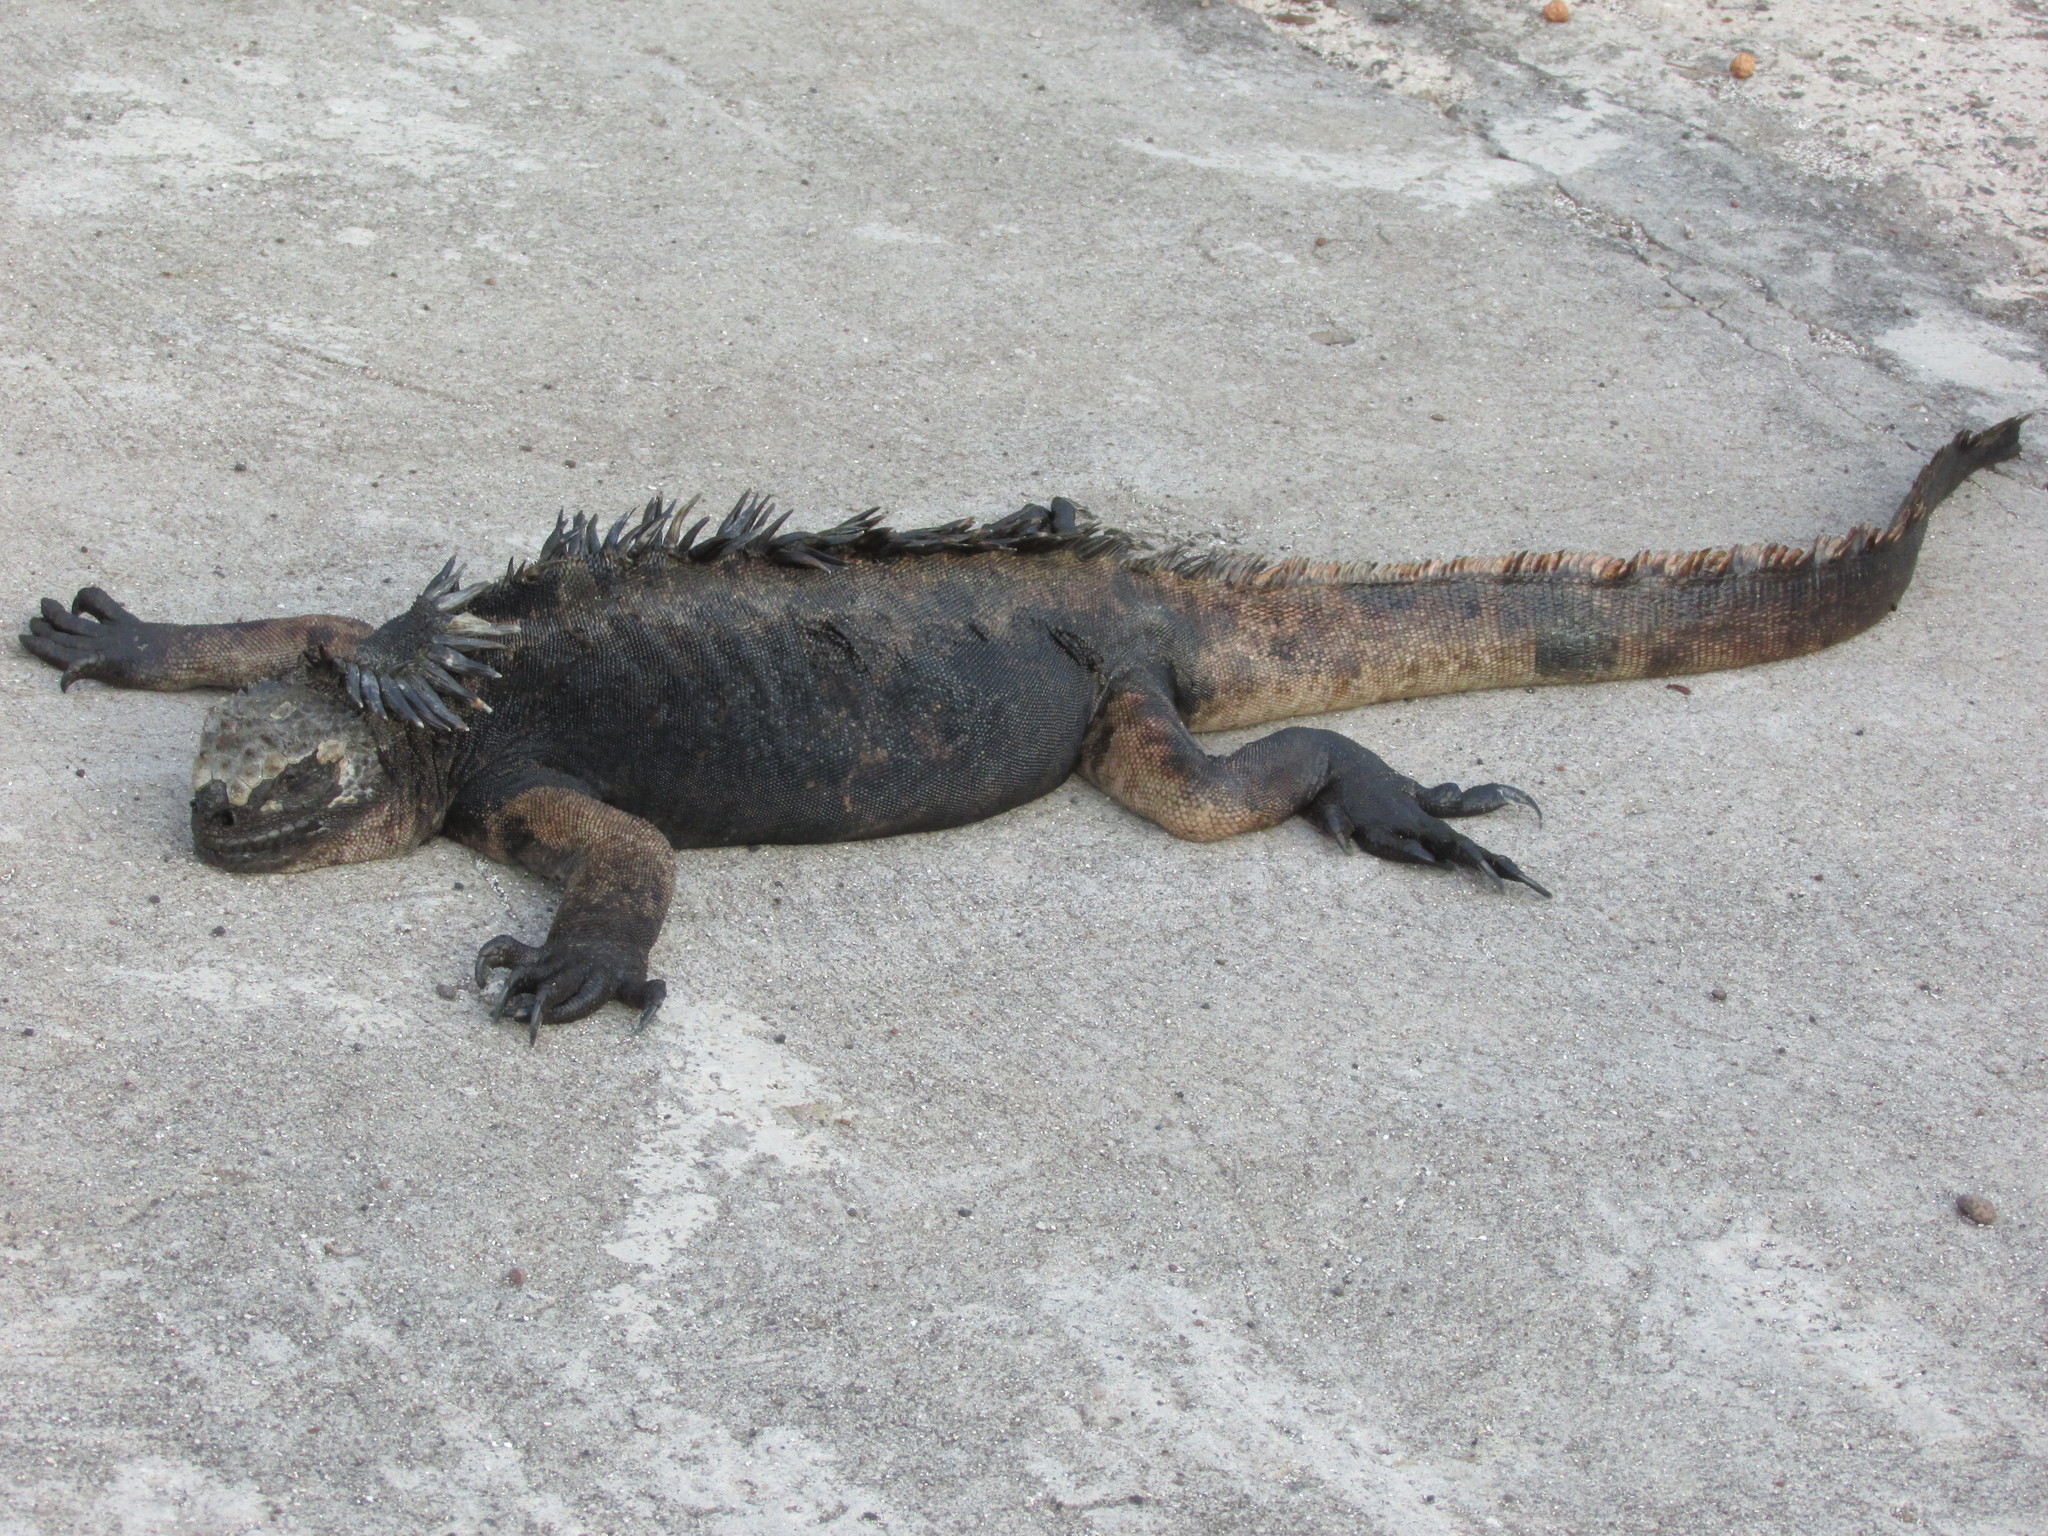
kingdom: Animalia
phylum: Chordata
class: Squamata
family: Iguanidae
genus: Amblyrhynchus
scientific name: Amblyrhynchus cristatus
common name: Marine iguana
